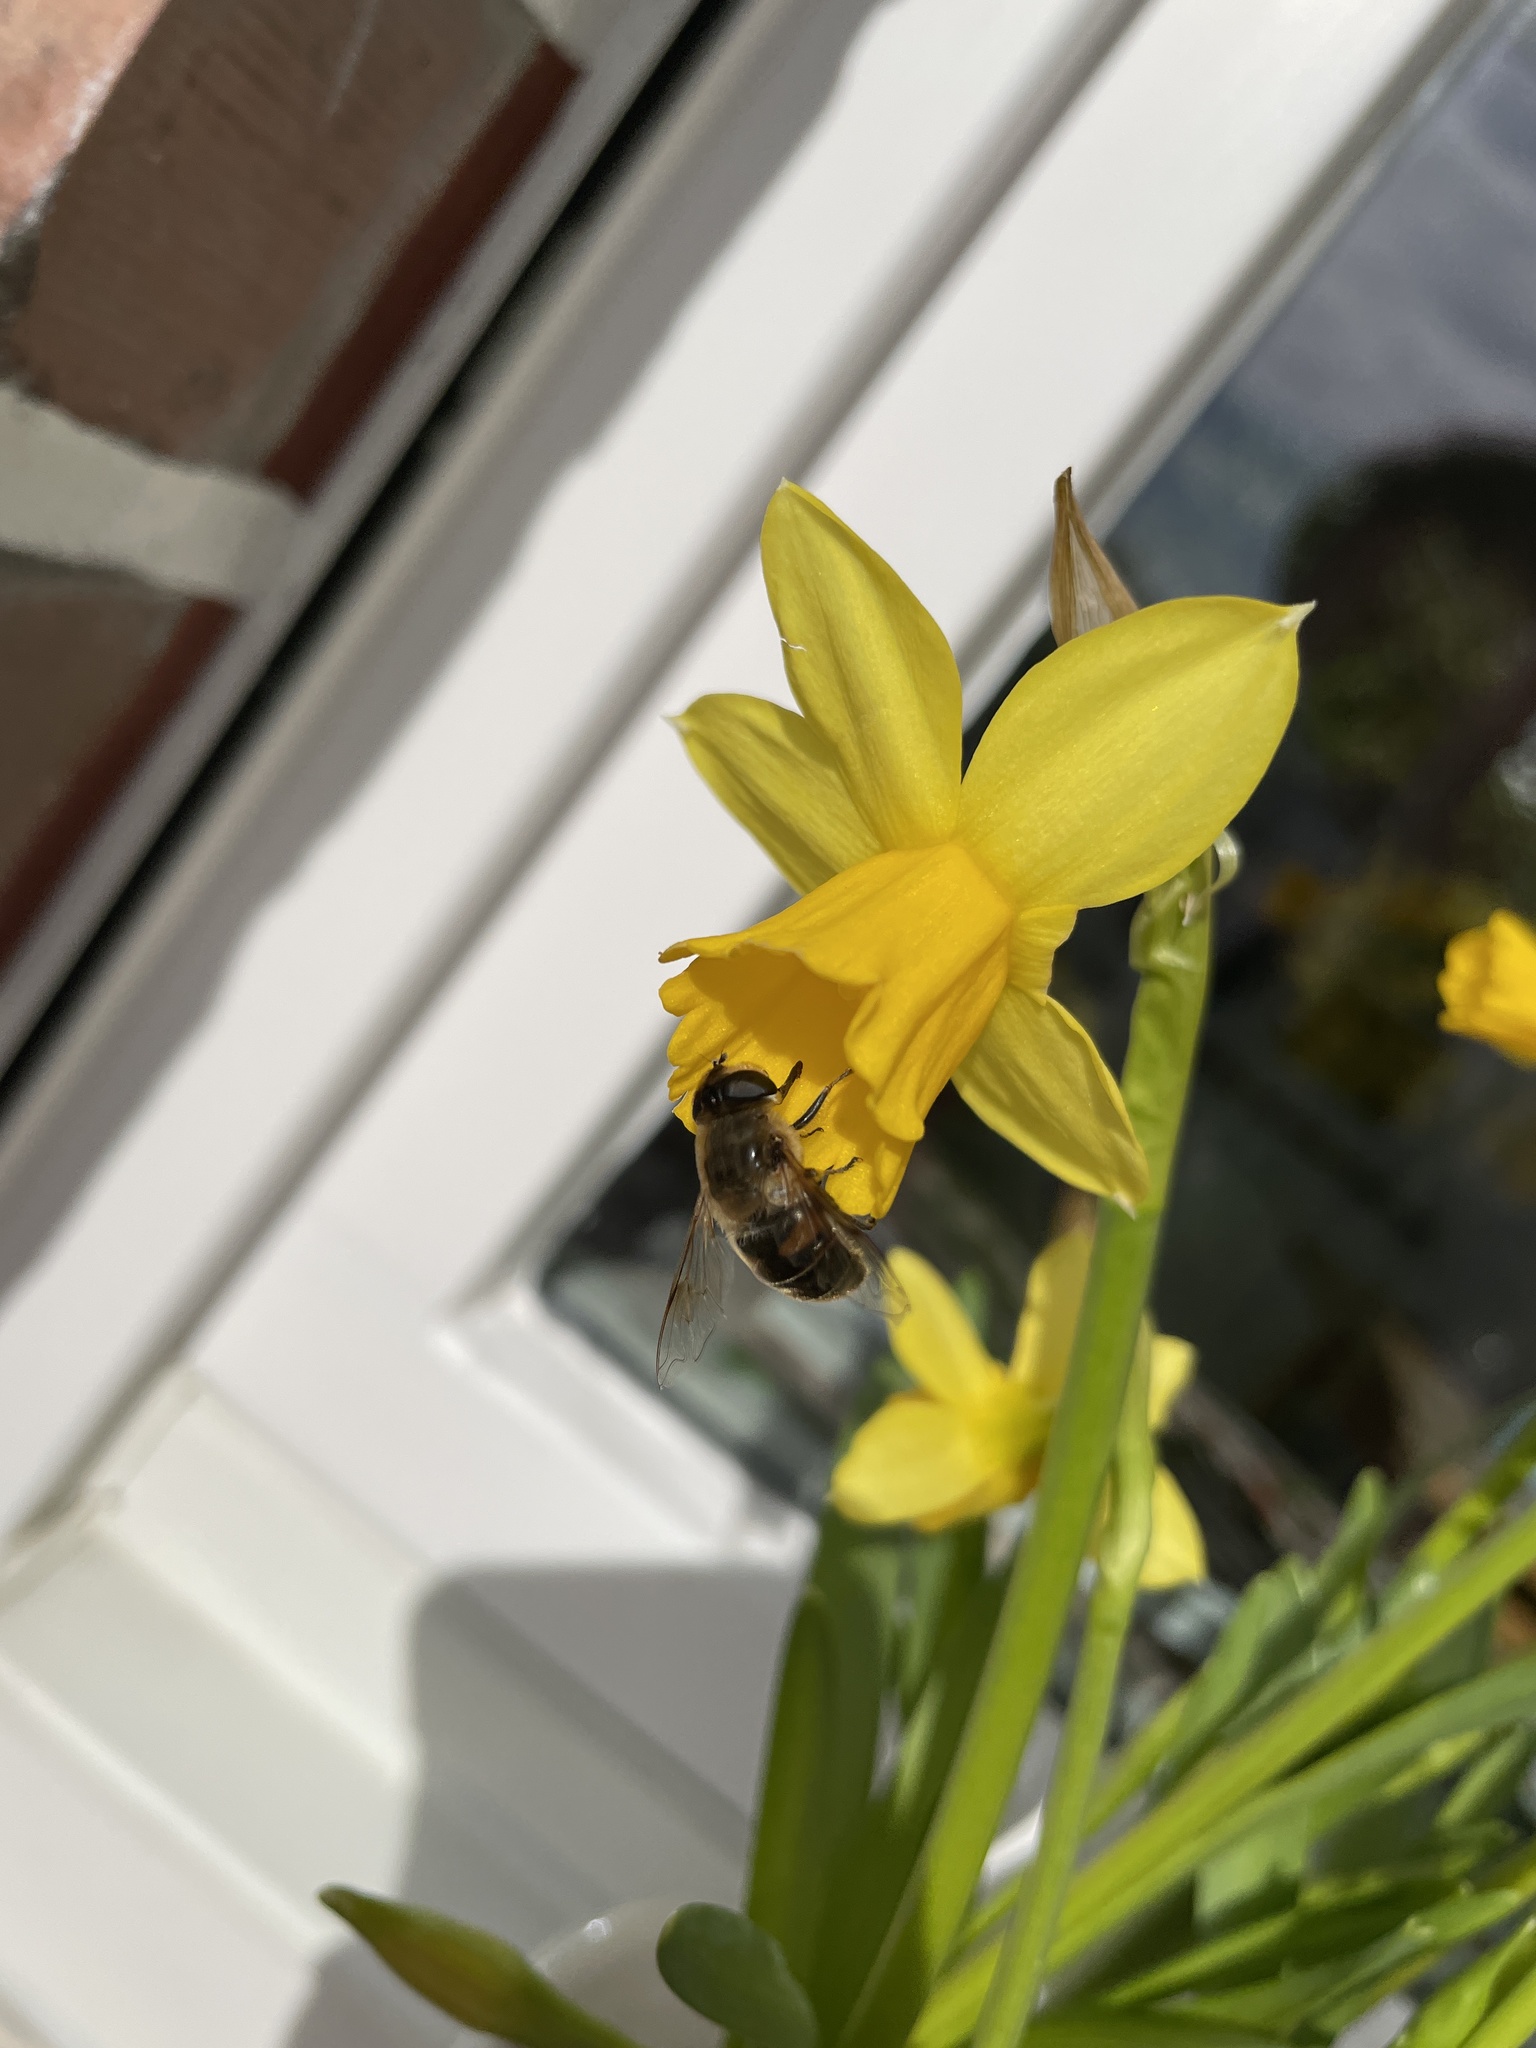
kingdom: Animalia
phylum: Arthropoda
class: Insecta
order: Diptera
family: Syrphidae
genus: Eristalis
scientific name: Eristalis tenax
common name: Drone fly
